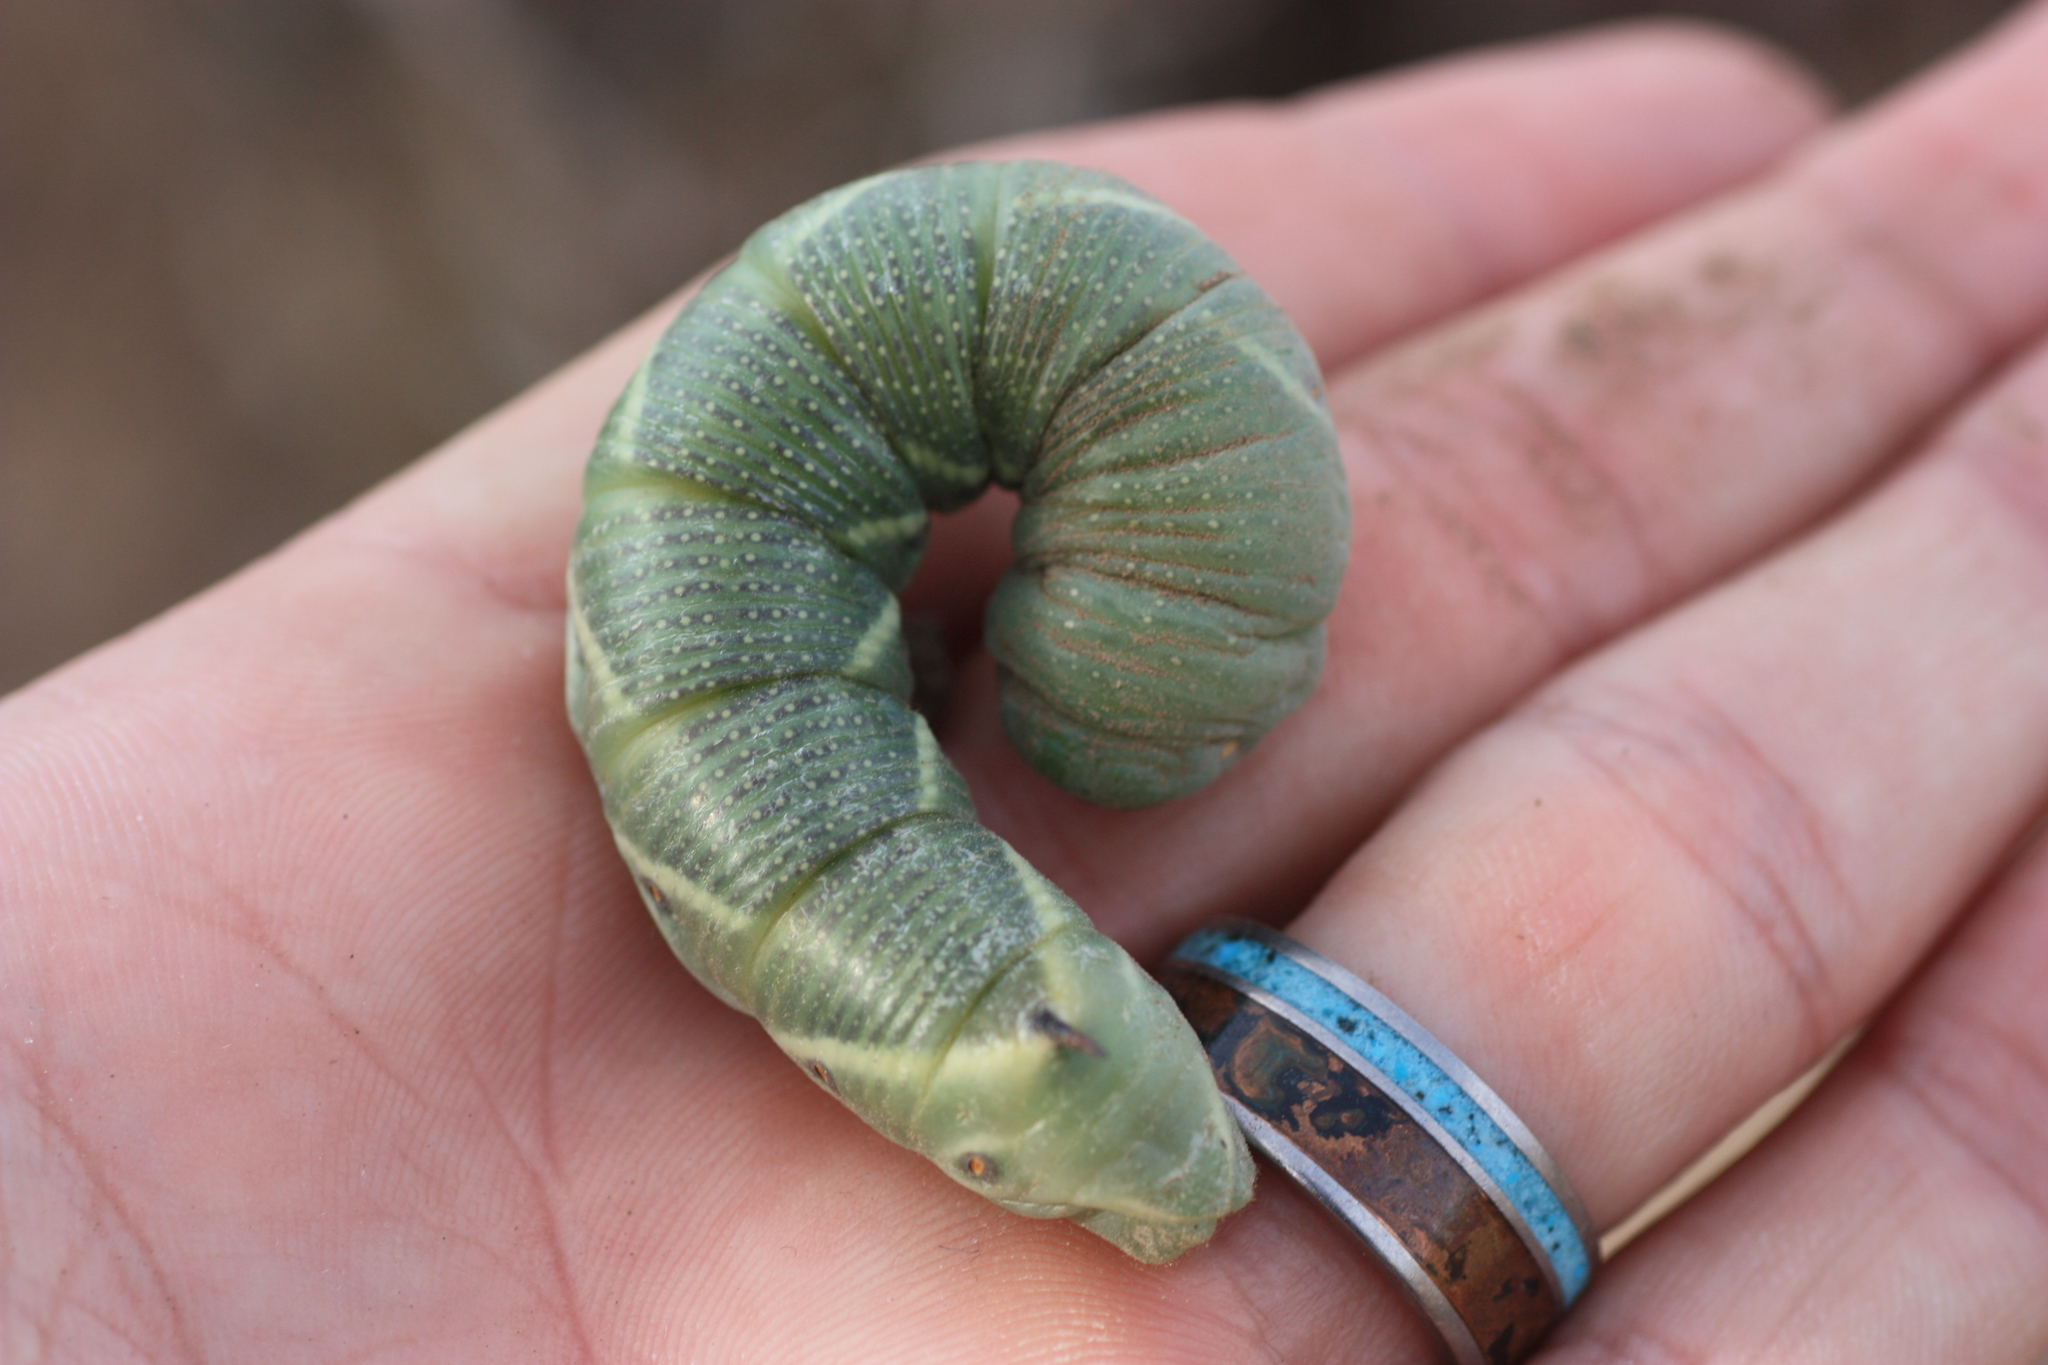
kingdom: Animalia
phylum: Arthropoda
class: Insecta
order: Lepidoptera
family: Sphingidae
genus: Manduca
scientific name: Manduca quinquemaculatus
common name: Five-spotted hawk-moth
